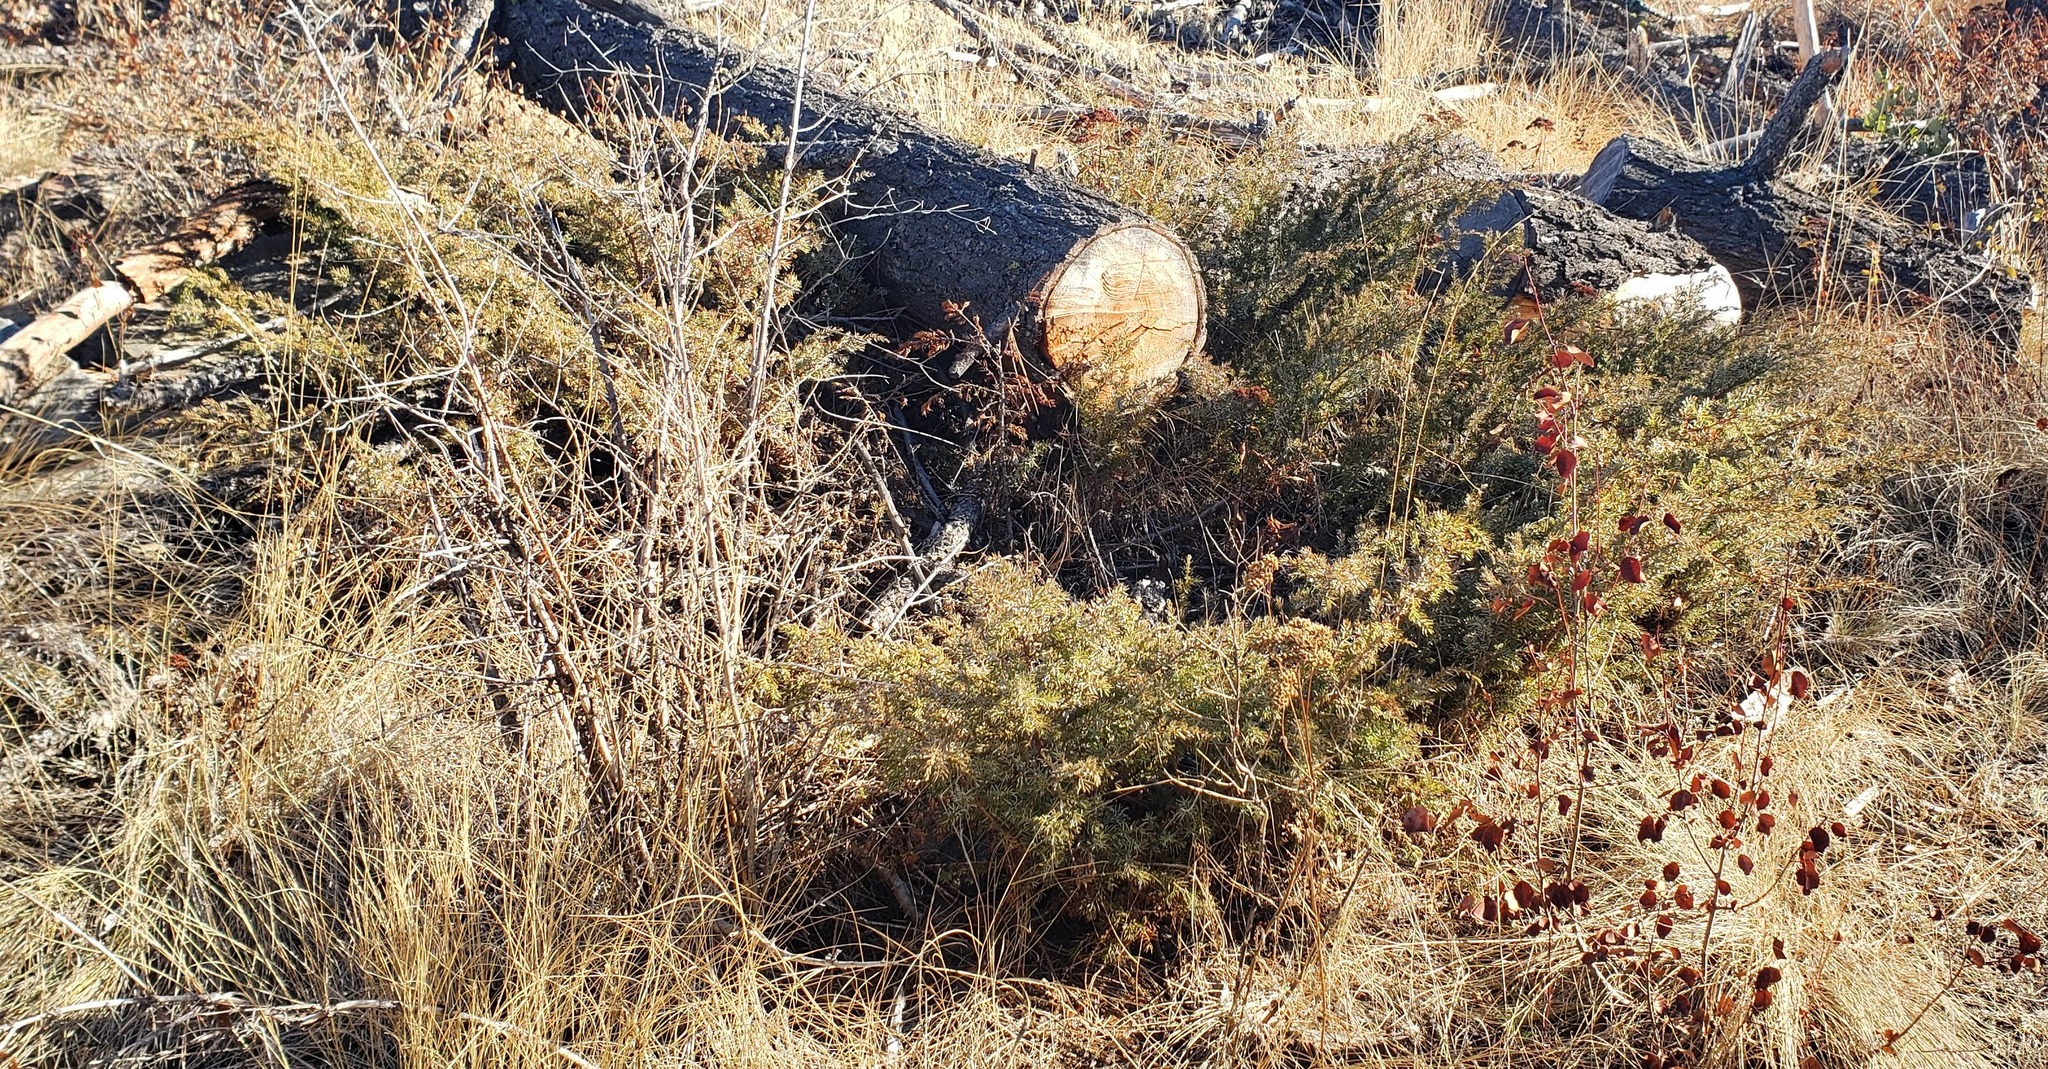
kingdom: Plantae
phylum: Tracheophyta
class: Pinopsida
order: Pinales
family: Cupressaceae
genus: Juniperus
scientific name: Juniperus communis
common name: Common juniper
